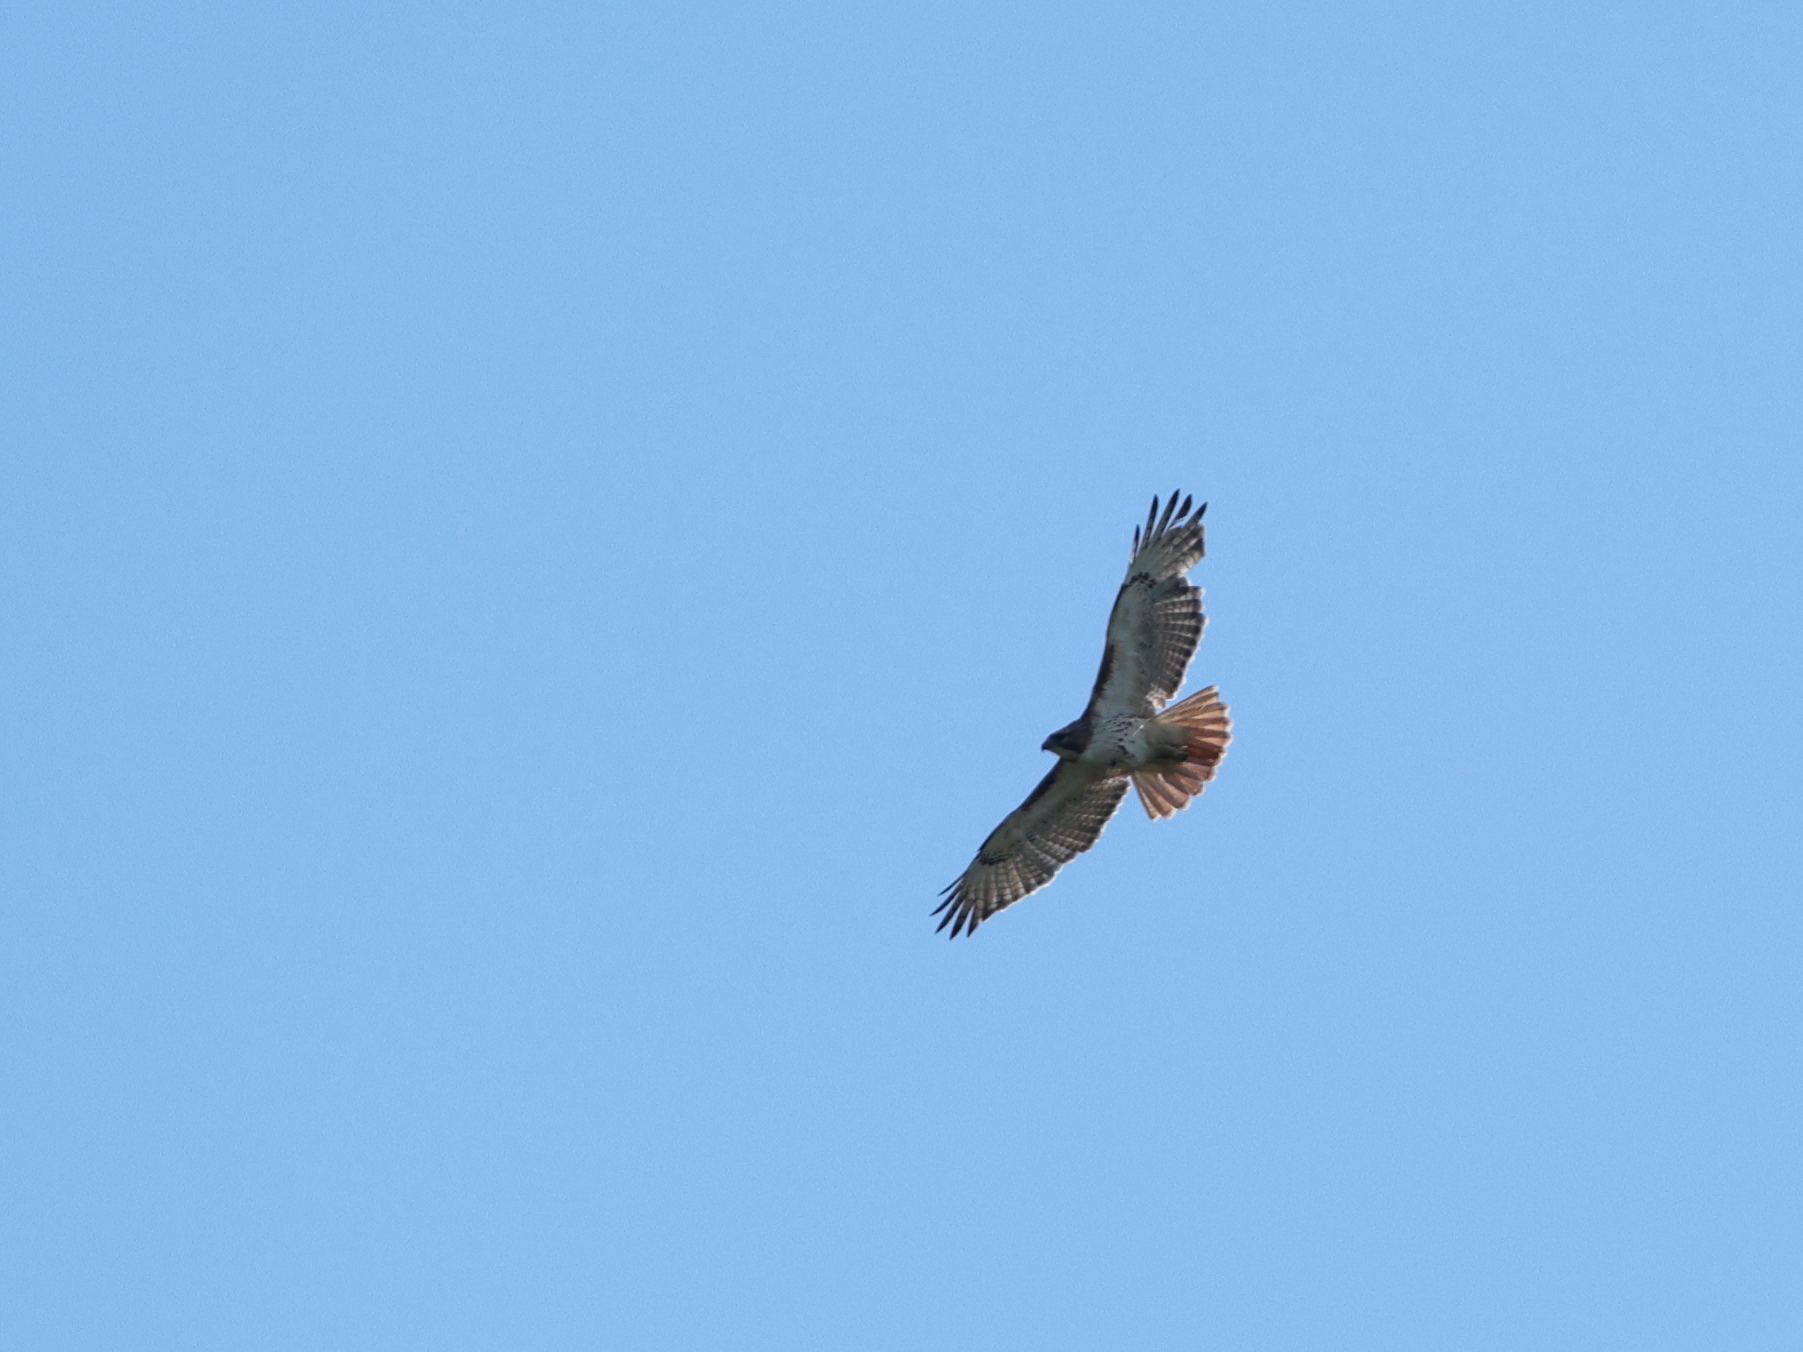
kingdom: Animalia
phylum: Chordata
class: Aves
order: Accipitriformes
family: Accipitridae
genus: Buteo
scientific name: Buteo jamaicensis
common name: Red-tailed hawk
